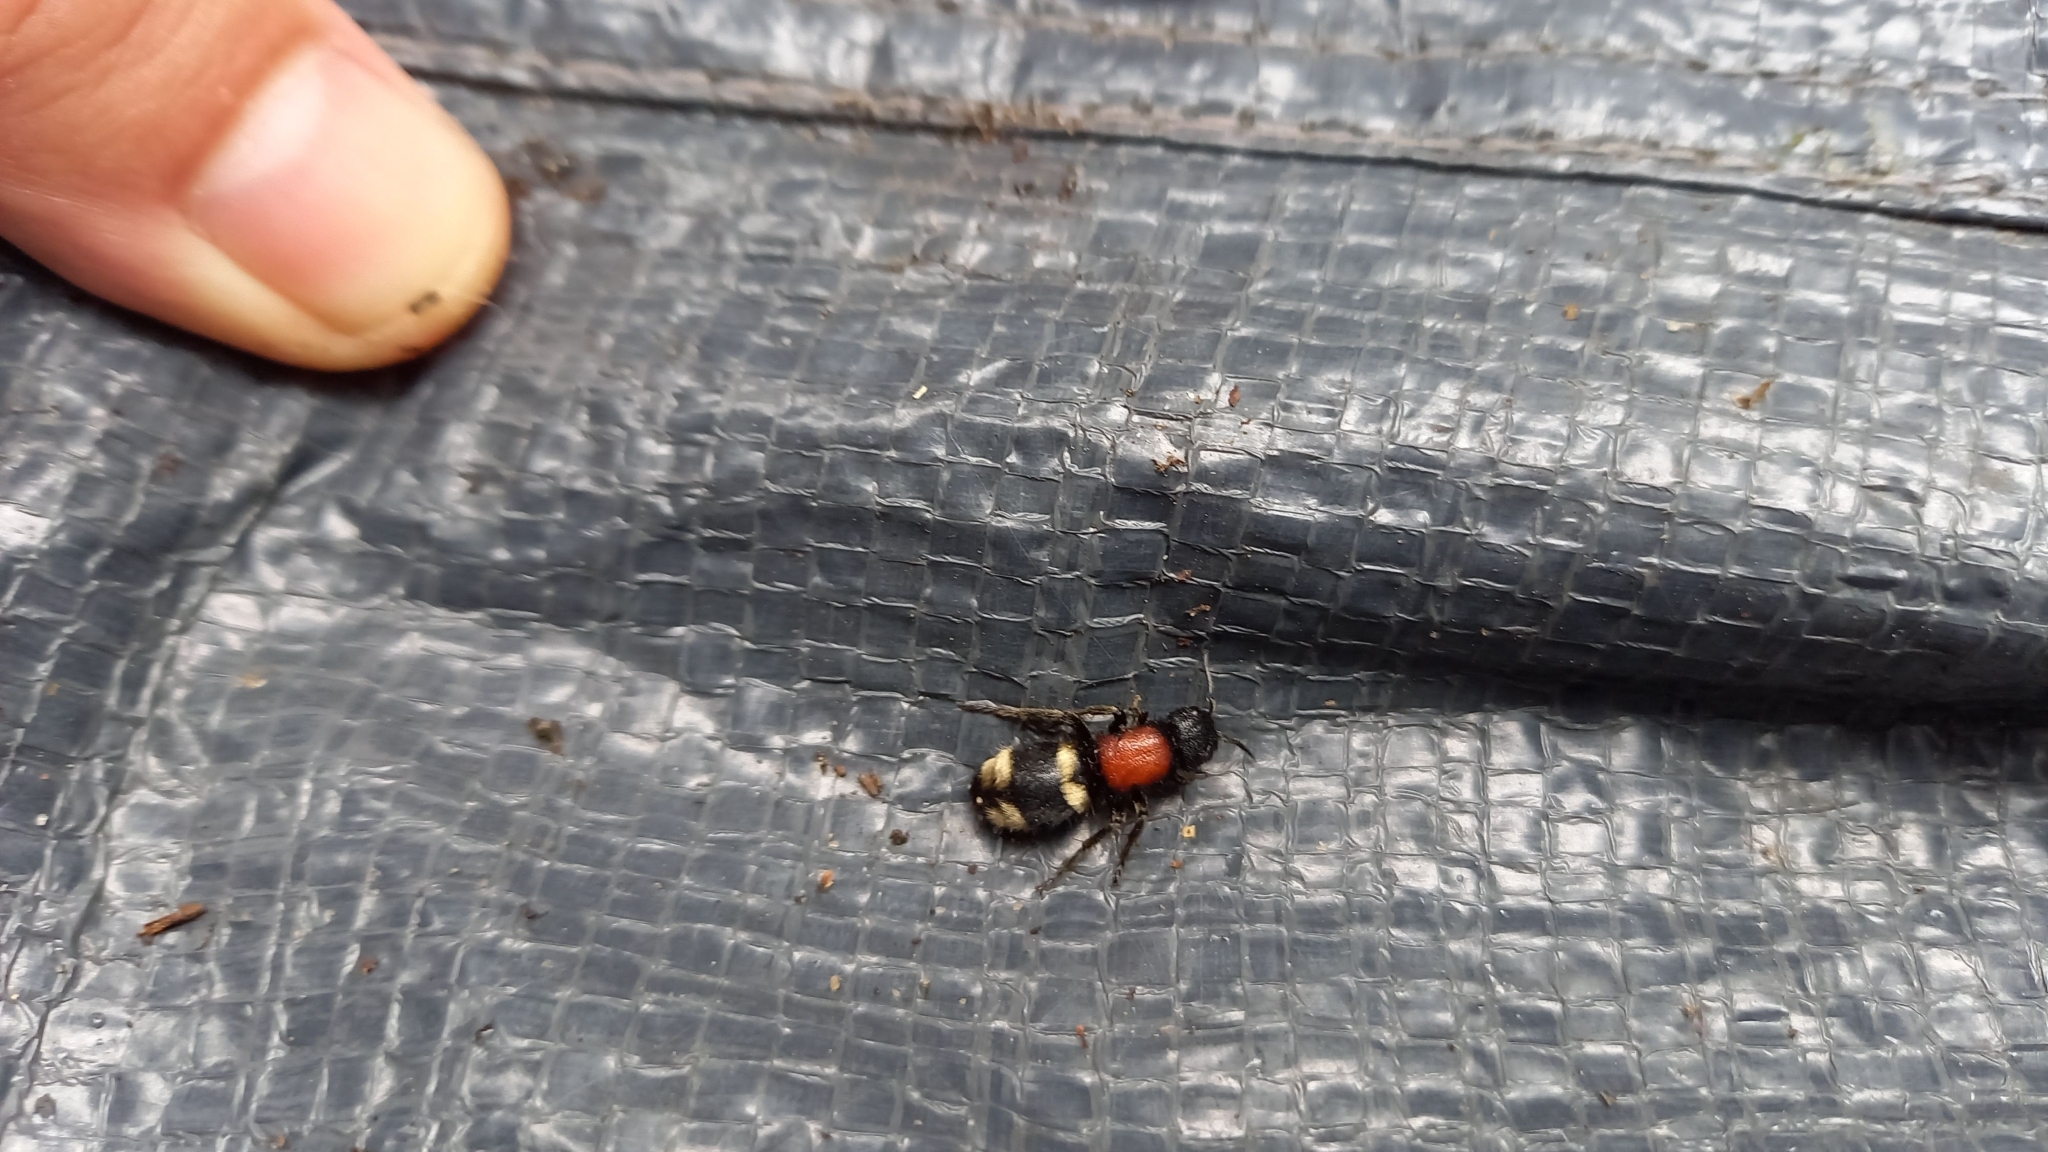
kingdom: Animalia
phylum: Arthropoda
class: Insecta
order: Hymenoptera
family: Mutillidae
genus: Mutilla
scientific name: Mutilla europaea
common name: Large velvet ant
